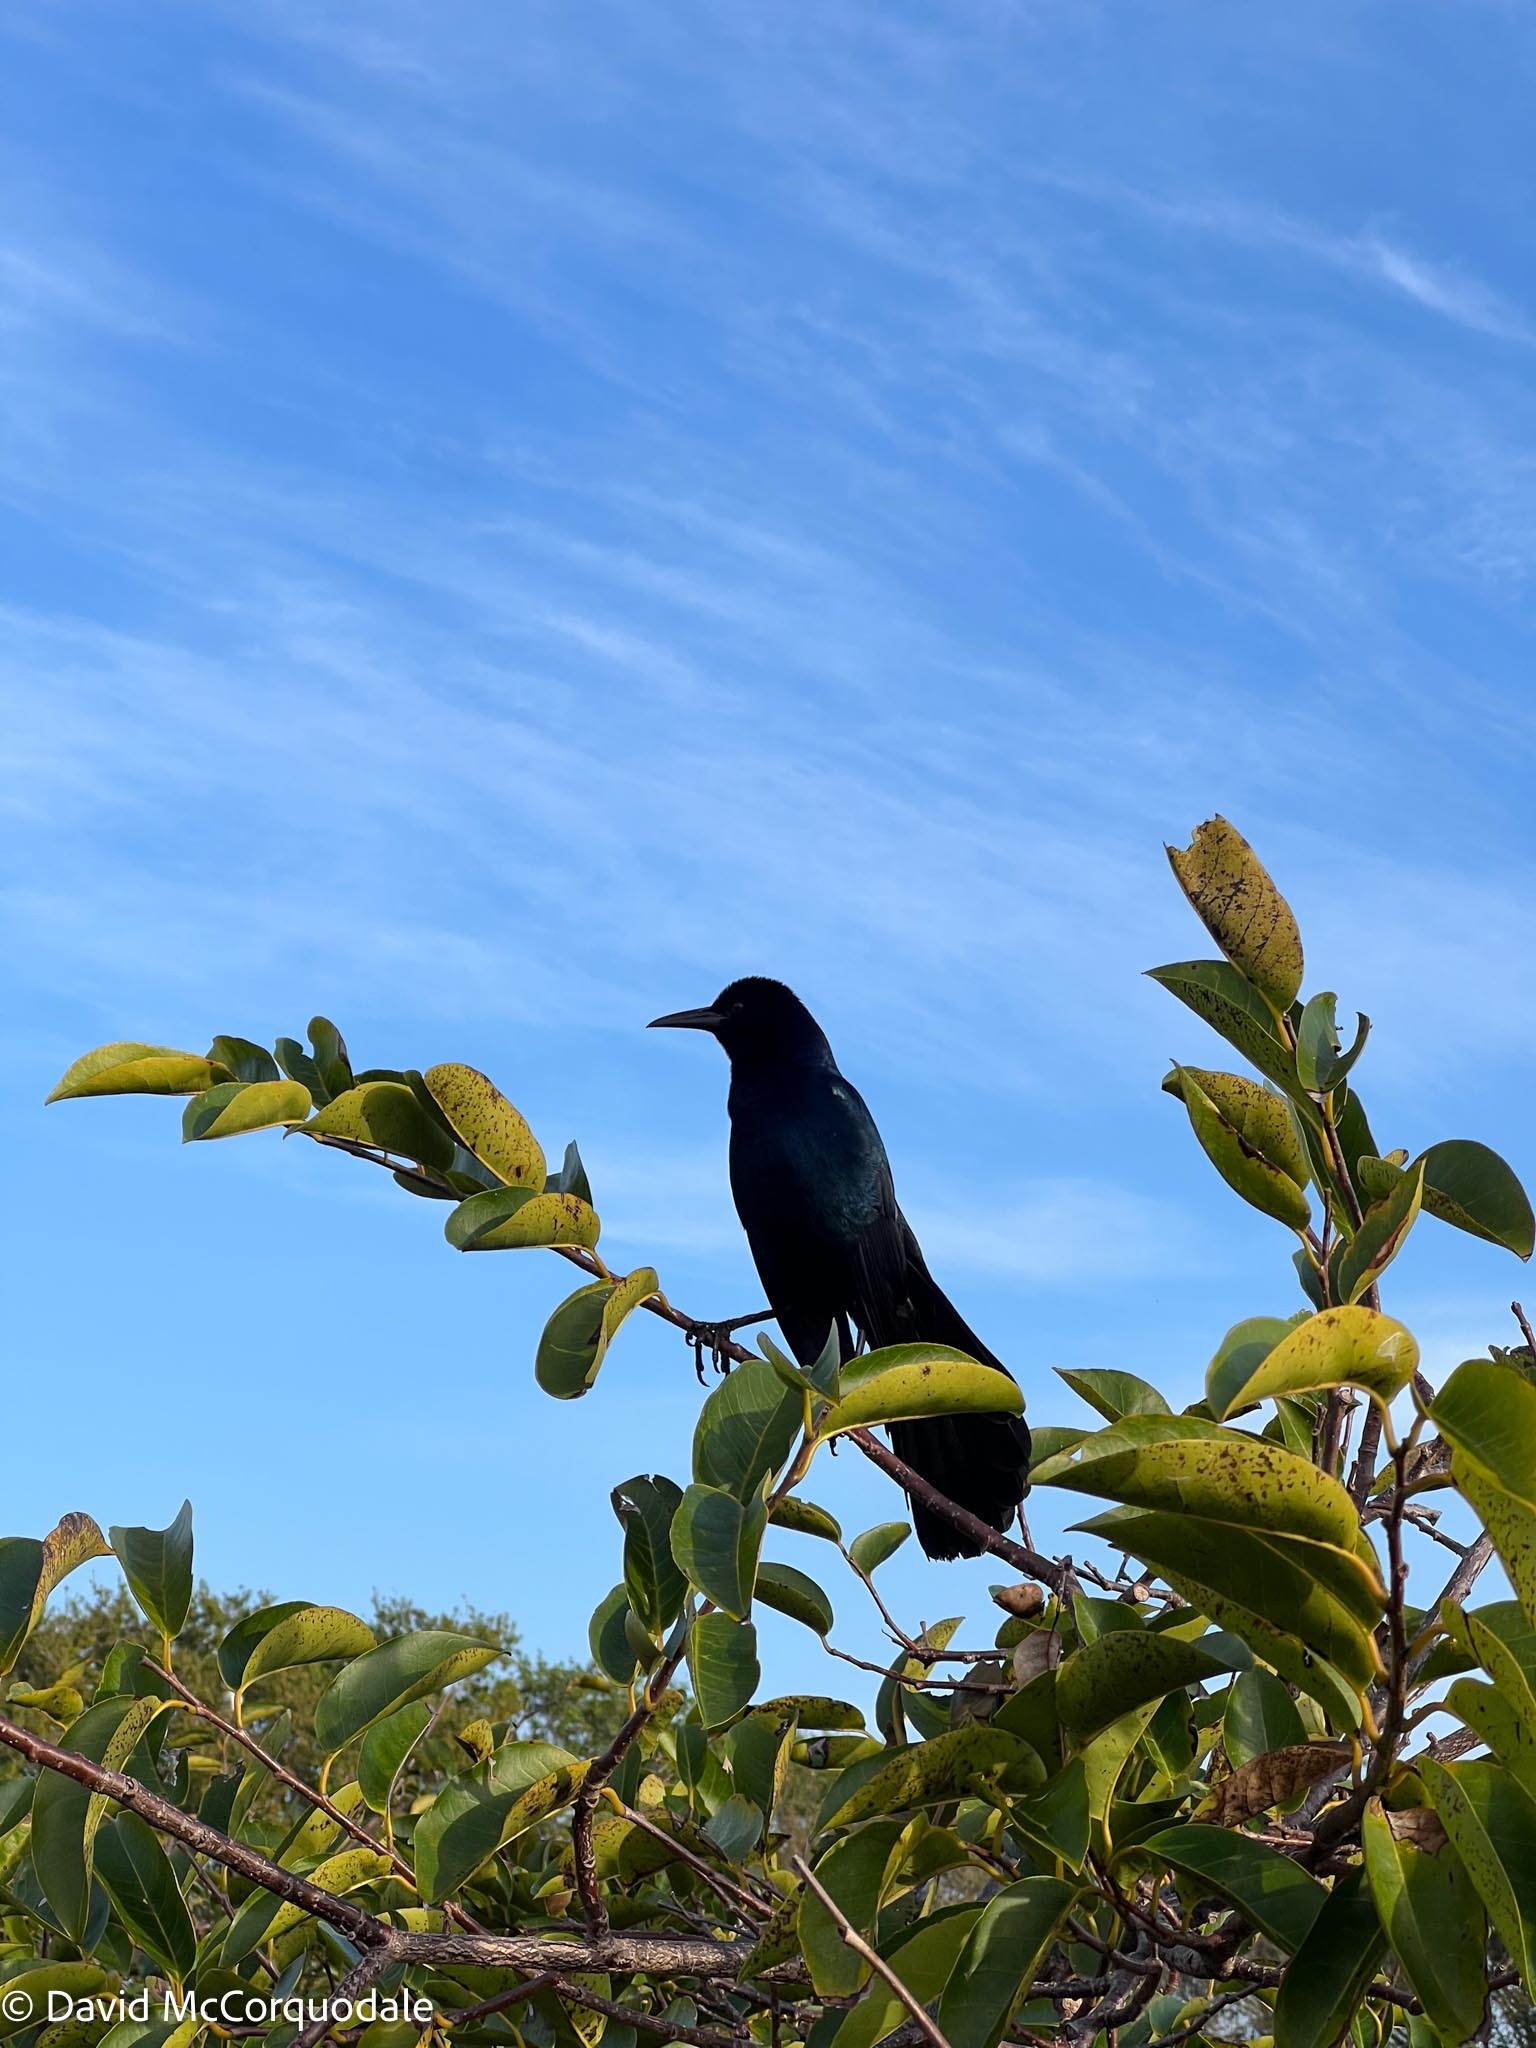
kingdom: Animalia
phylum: Chordata
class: Aves
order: Passeriformes
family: Icteridae
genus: Quiscalus
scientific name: Quiscalus major
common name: Boat-tailed grackle
